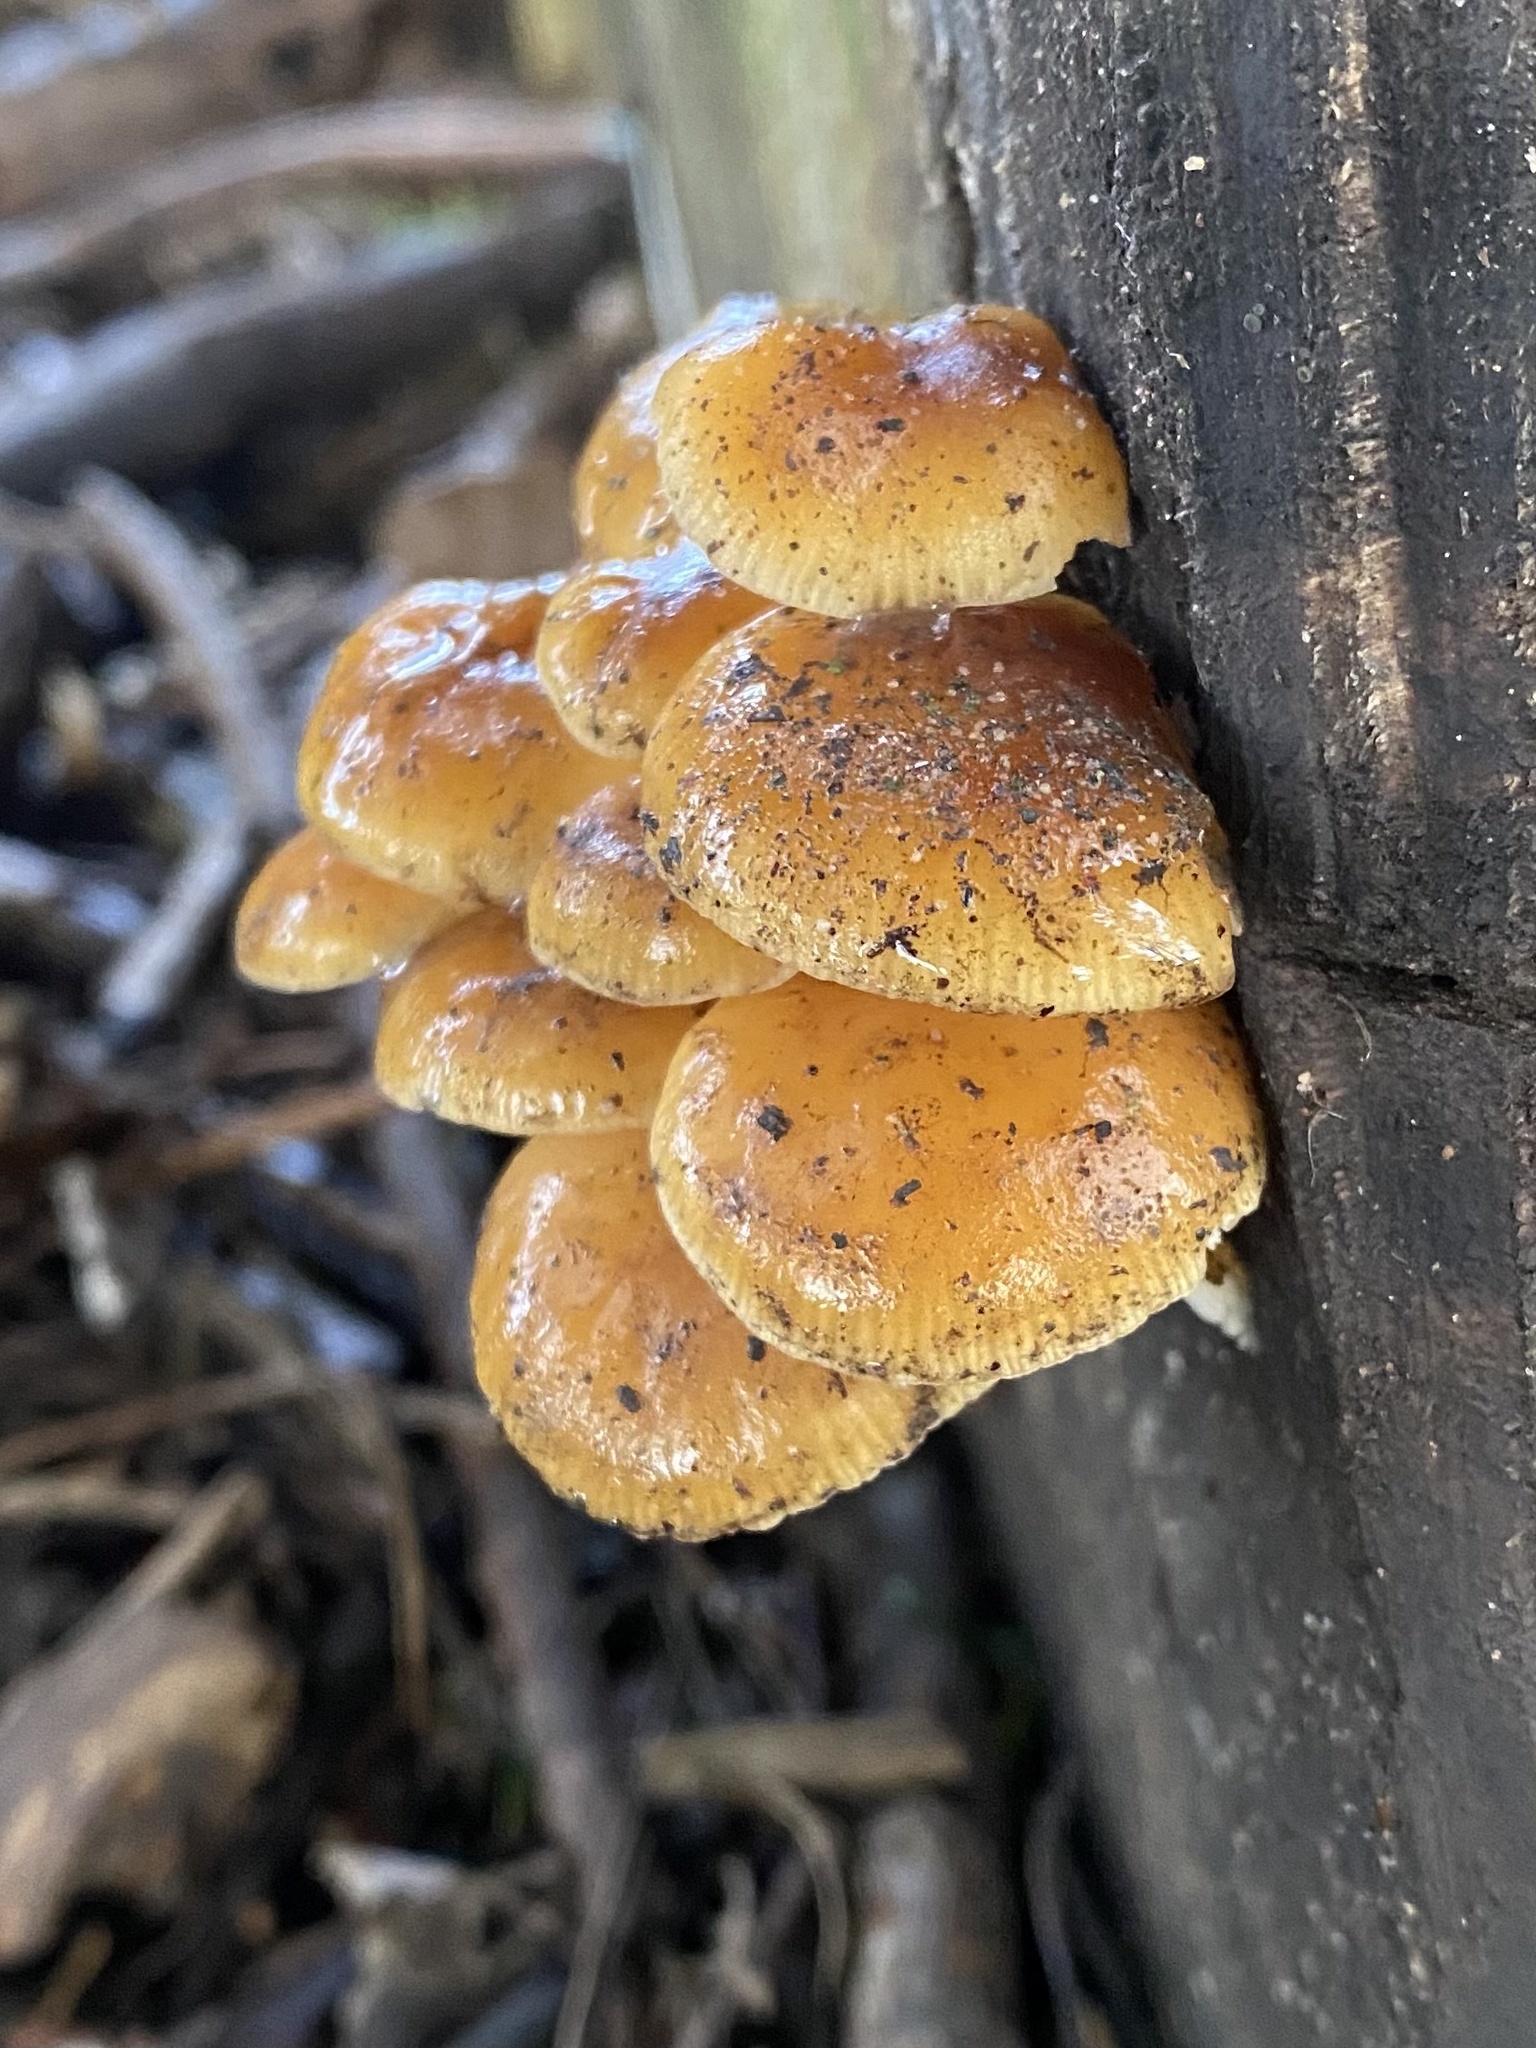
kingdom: Fungi
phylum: Basidiomycota
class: Agaricomycetes
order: Agaricales
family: Physalacriaceae
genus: Flammulina
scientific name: Flammulina
